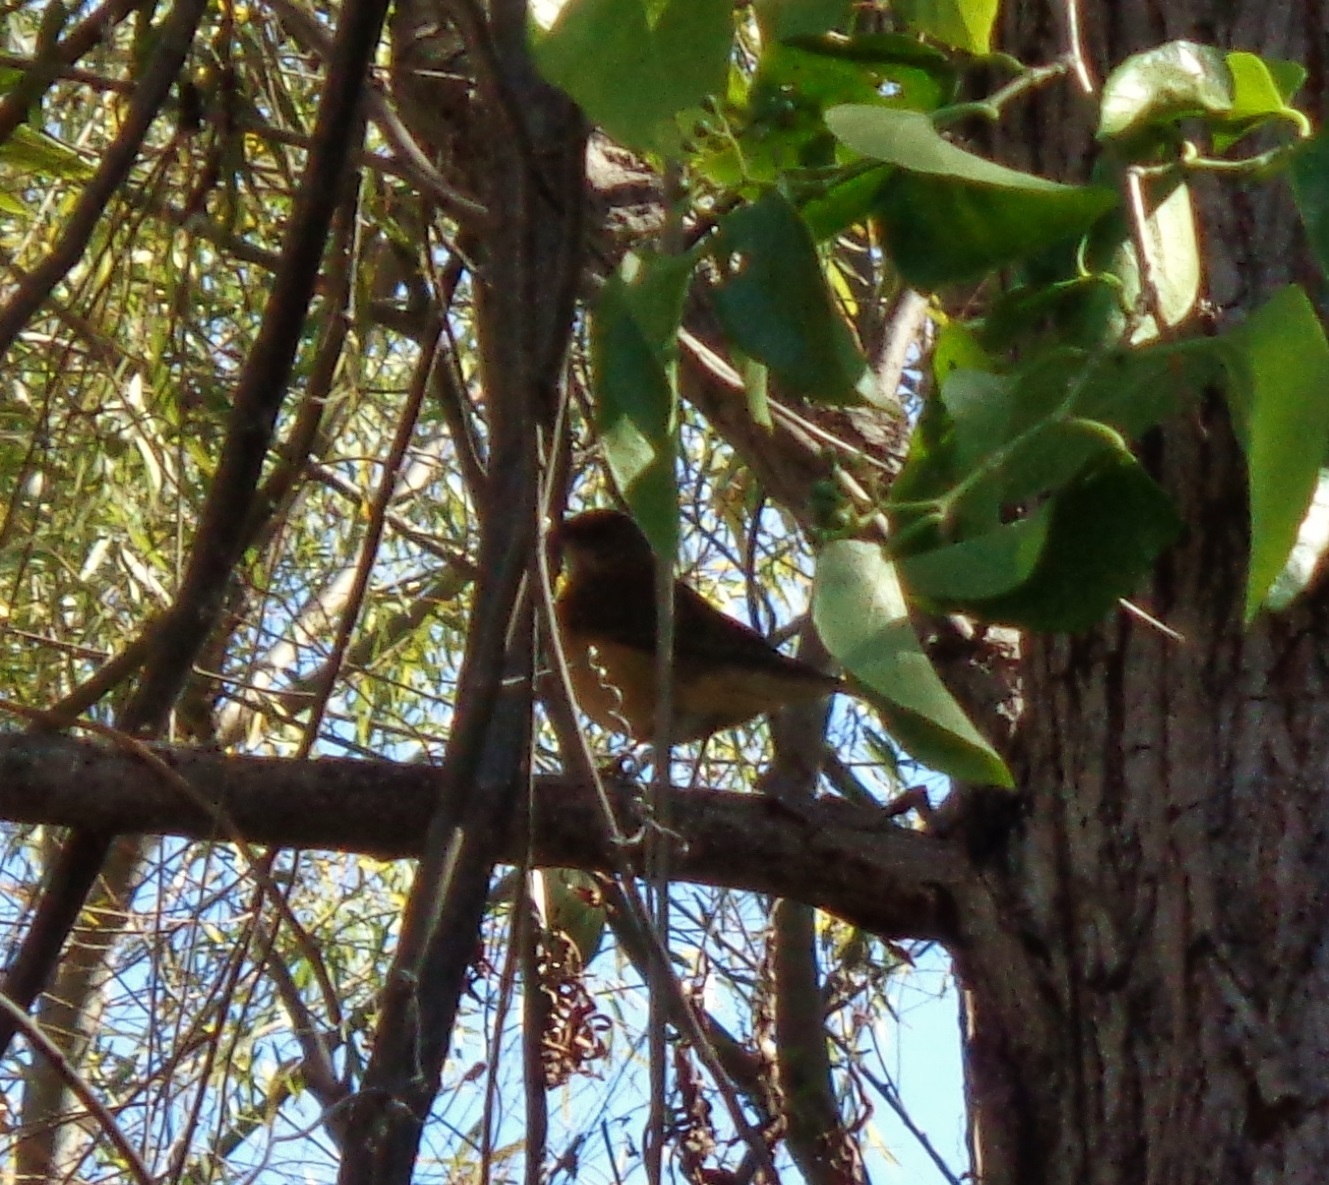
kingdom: Animalia
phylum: Chordata
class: Aves
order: Passeriformes
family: Turdidae
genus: Turdus
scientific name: Turdus grayi
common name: Clay-colored thrush
